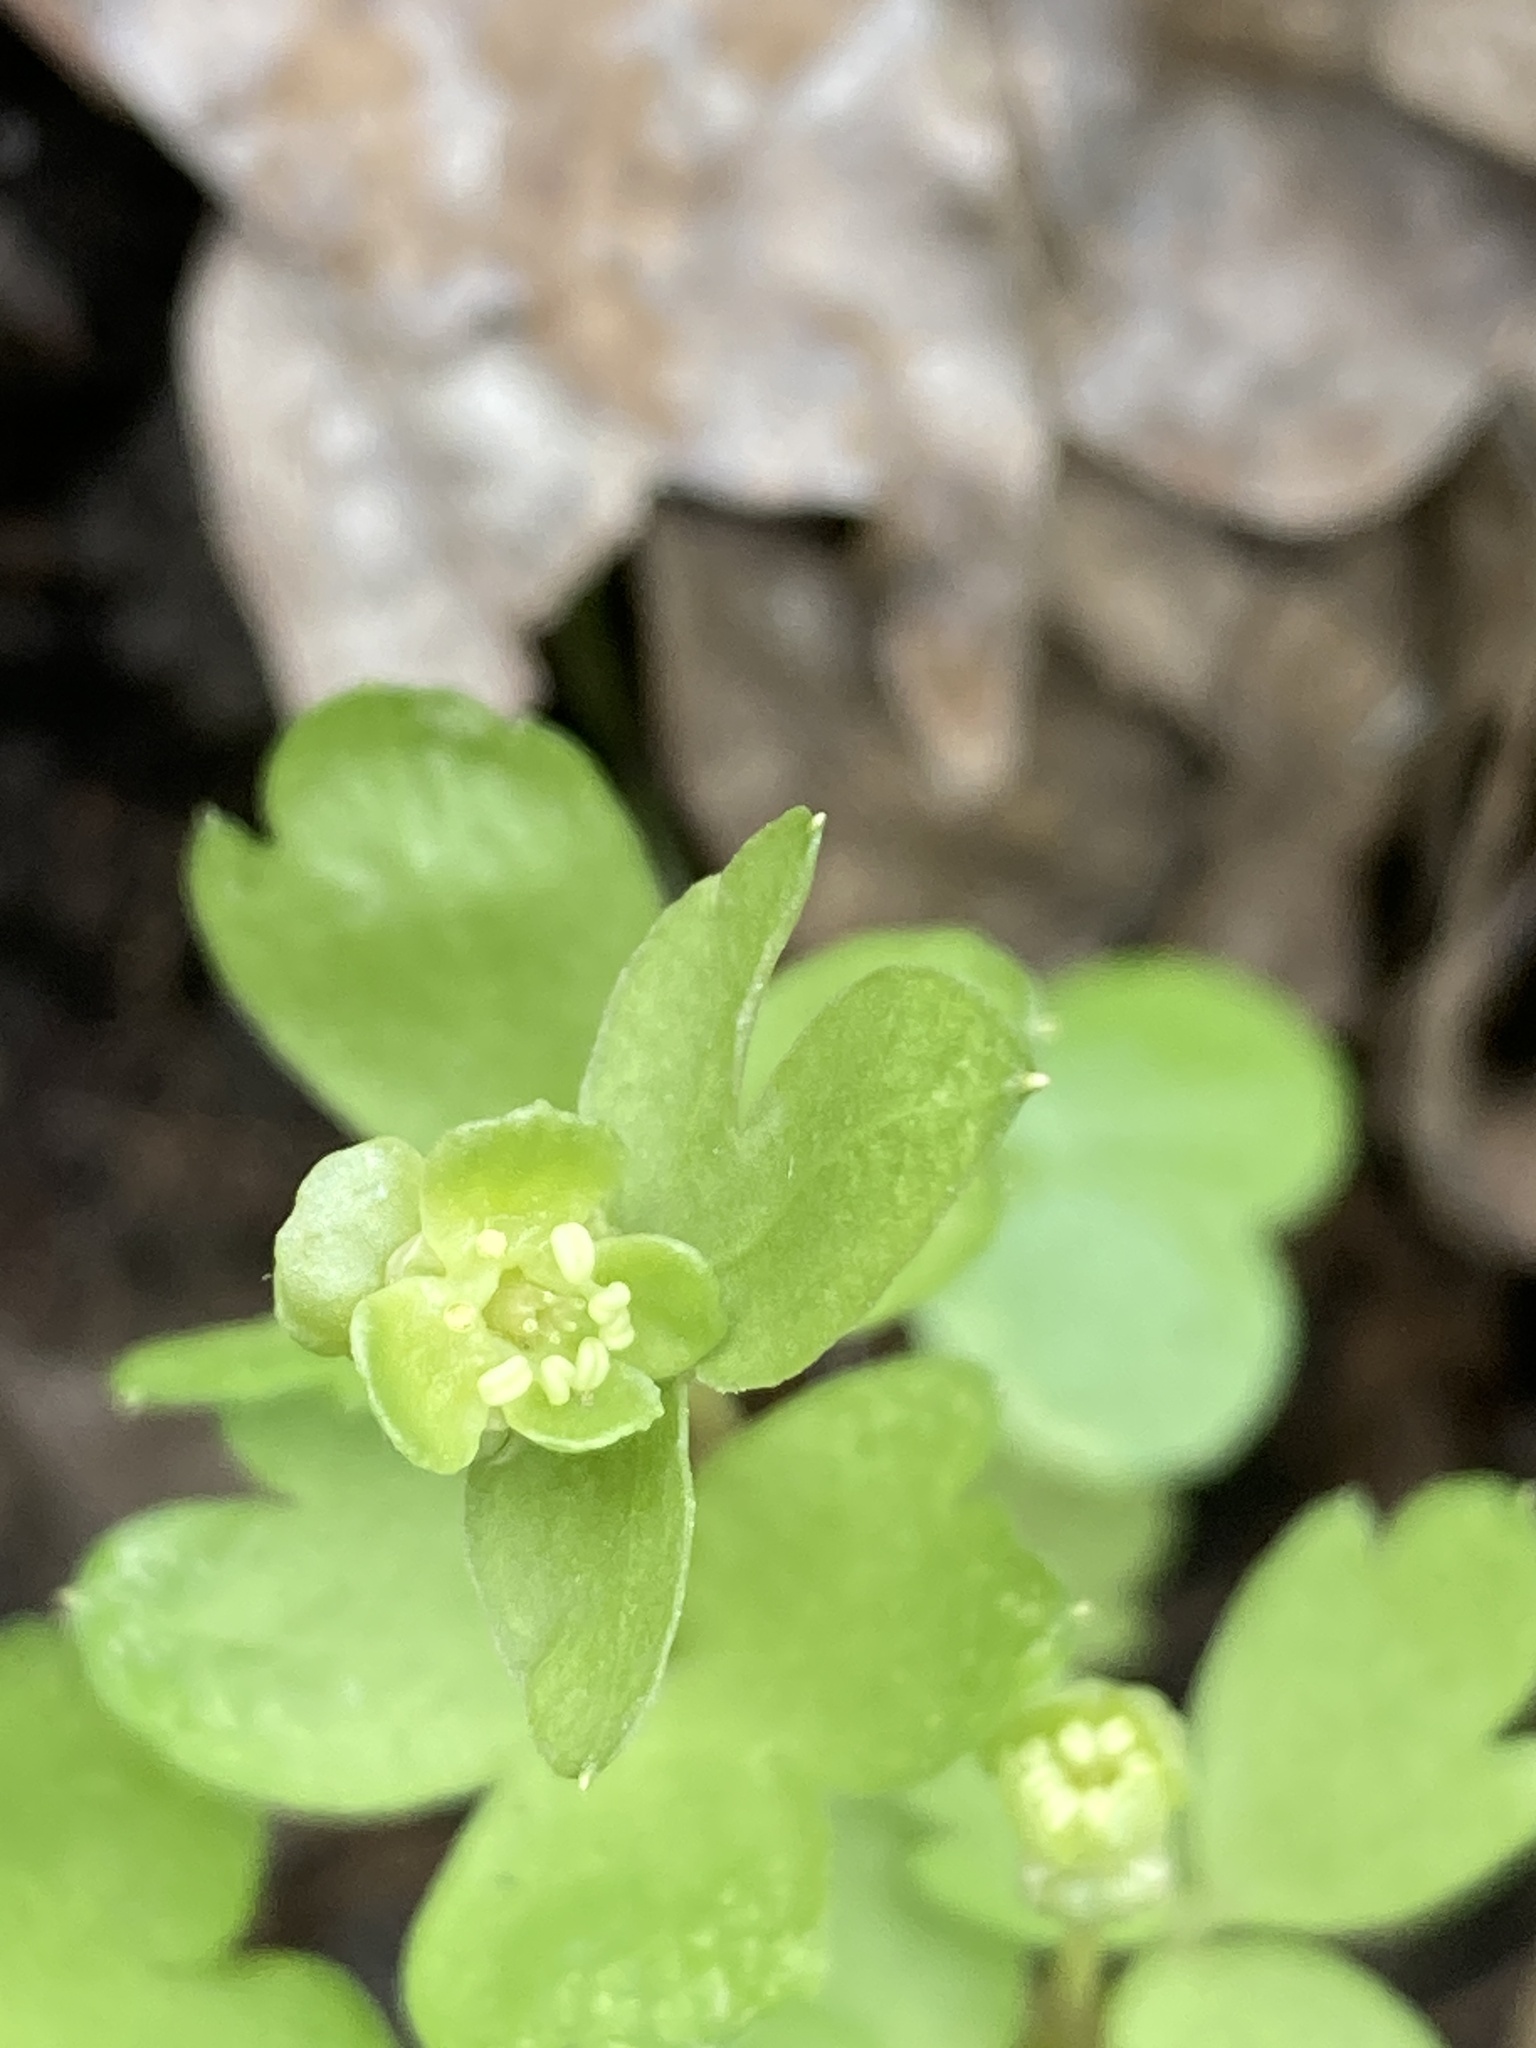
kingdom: Plantae
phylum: Tracheophyta
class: Magnoliopsida
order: Dipsacales
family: Viburnaceae
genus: Adoxa
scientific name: Adoxa moschatellina
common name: Moschatel
